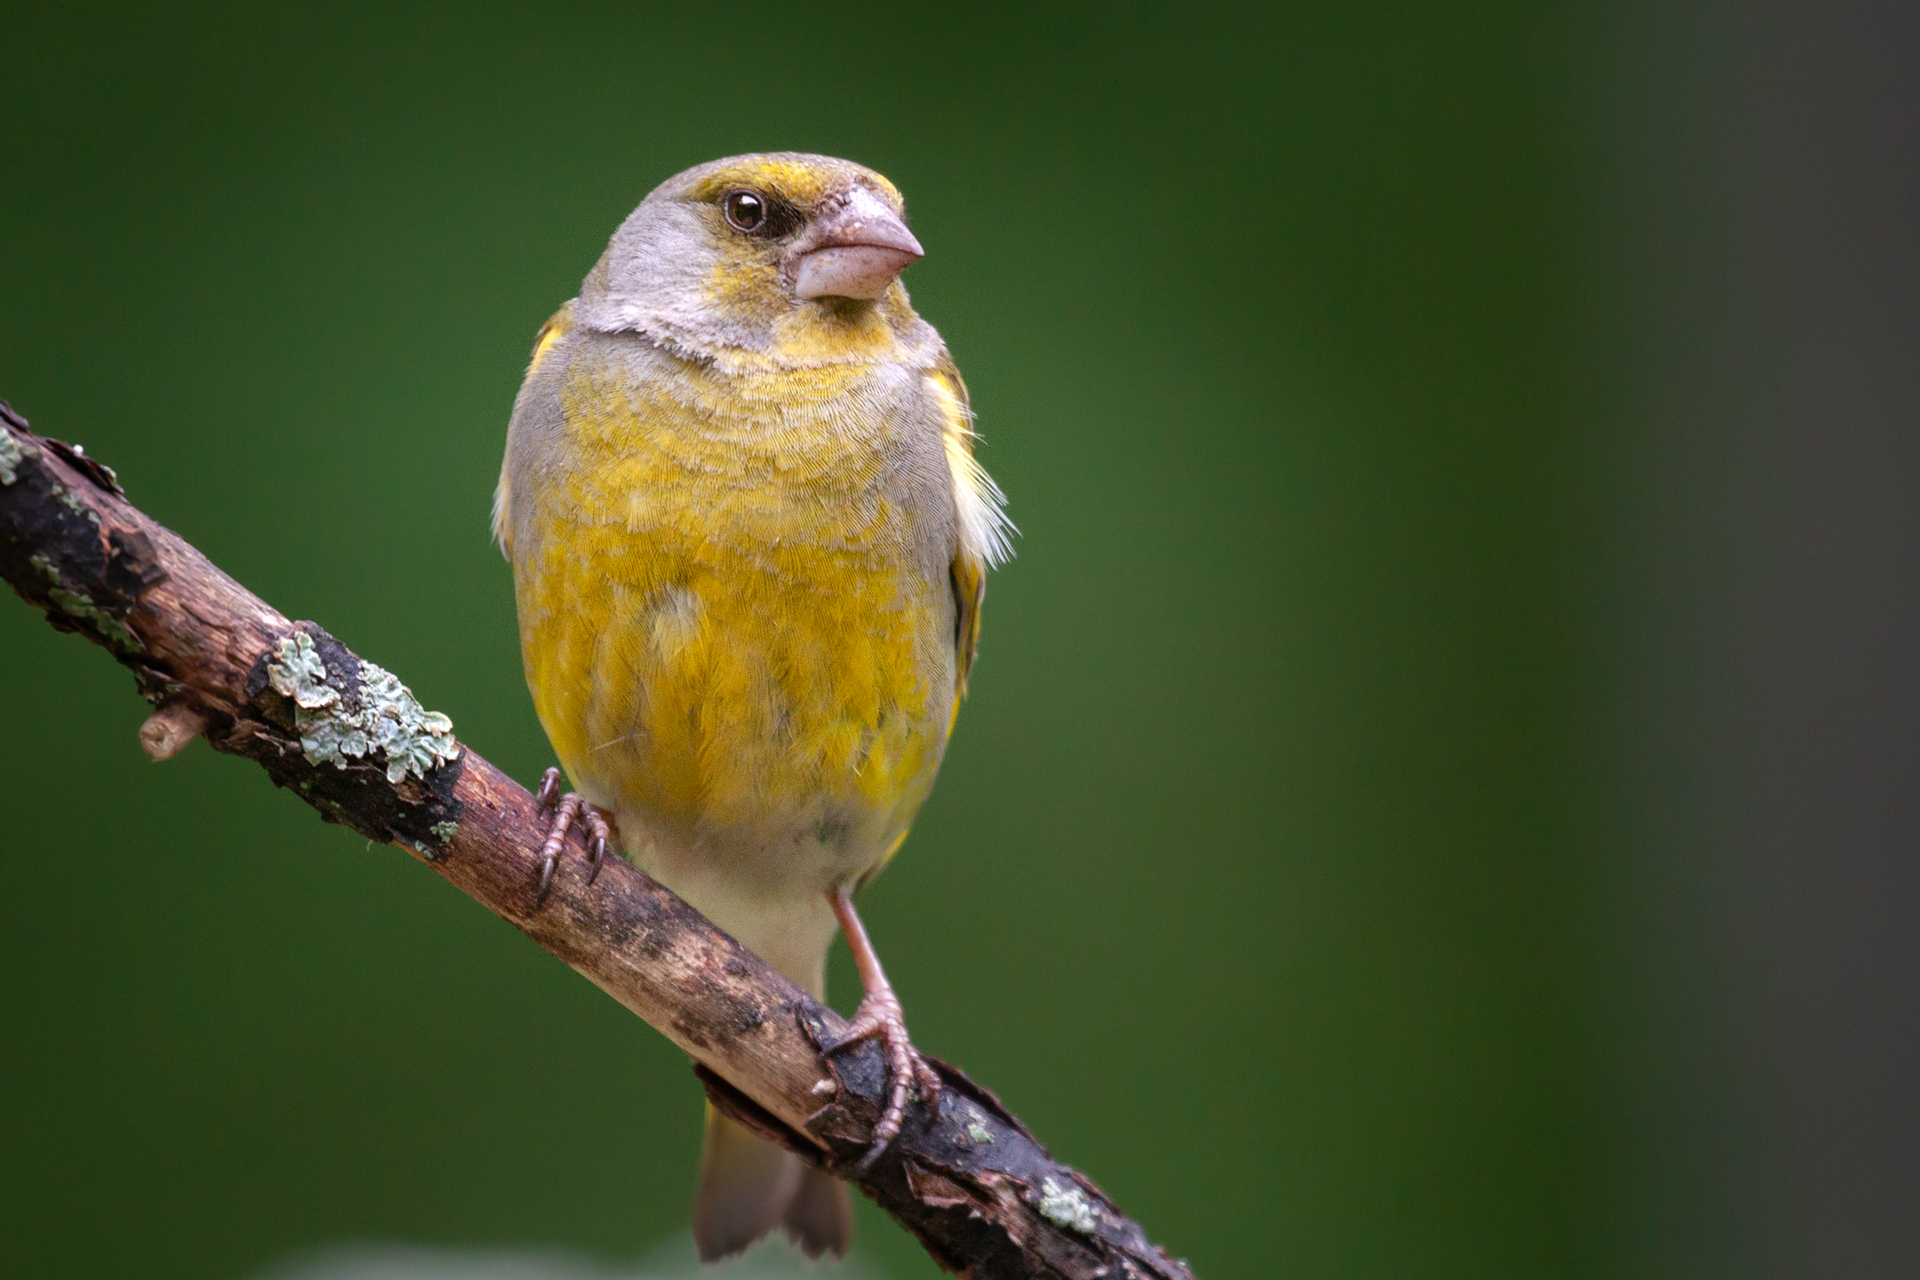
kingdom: Plantae
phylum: Tracheophyta
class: Liliopsida
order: Poales
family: Poaceae
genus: Chloris
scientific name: Chloris chloris
